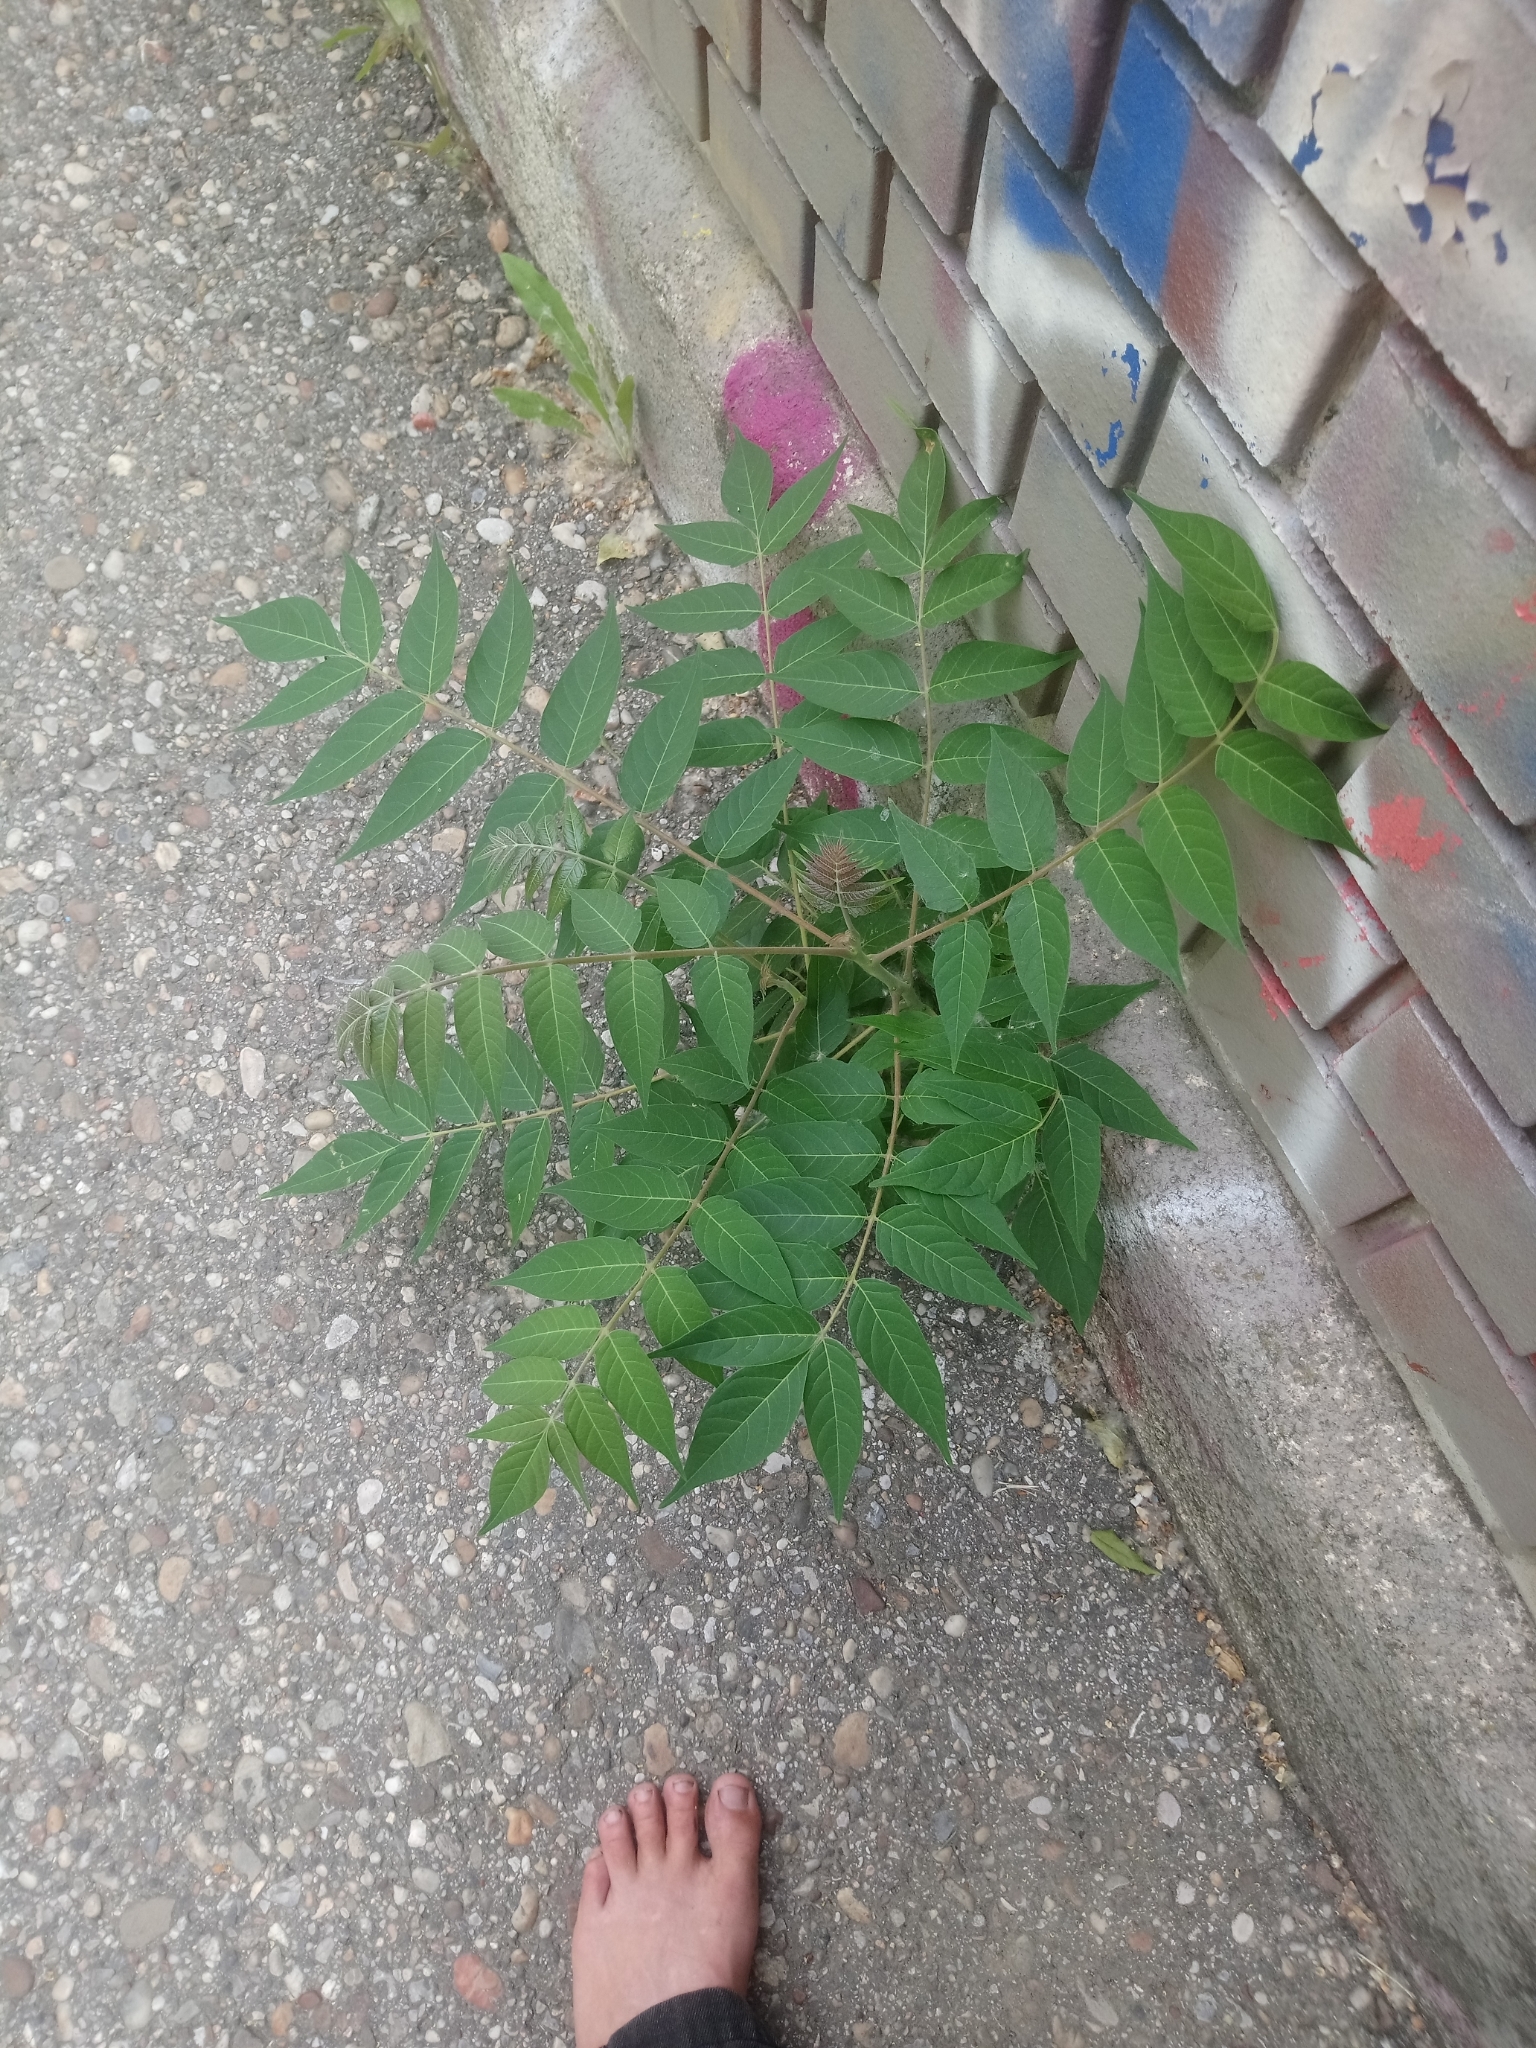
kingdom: Plantae
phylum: Tracheophyta
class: Magnoliopsida
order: Sapindales
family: Simaroubaceae
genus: Ailanthus
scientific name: Ailanthus altissima
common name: Tree-of-heaven
